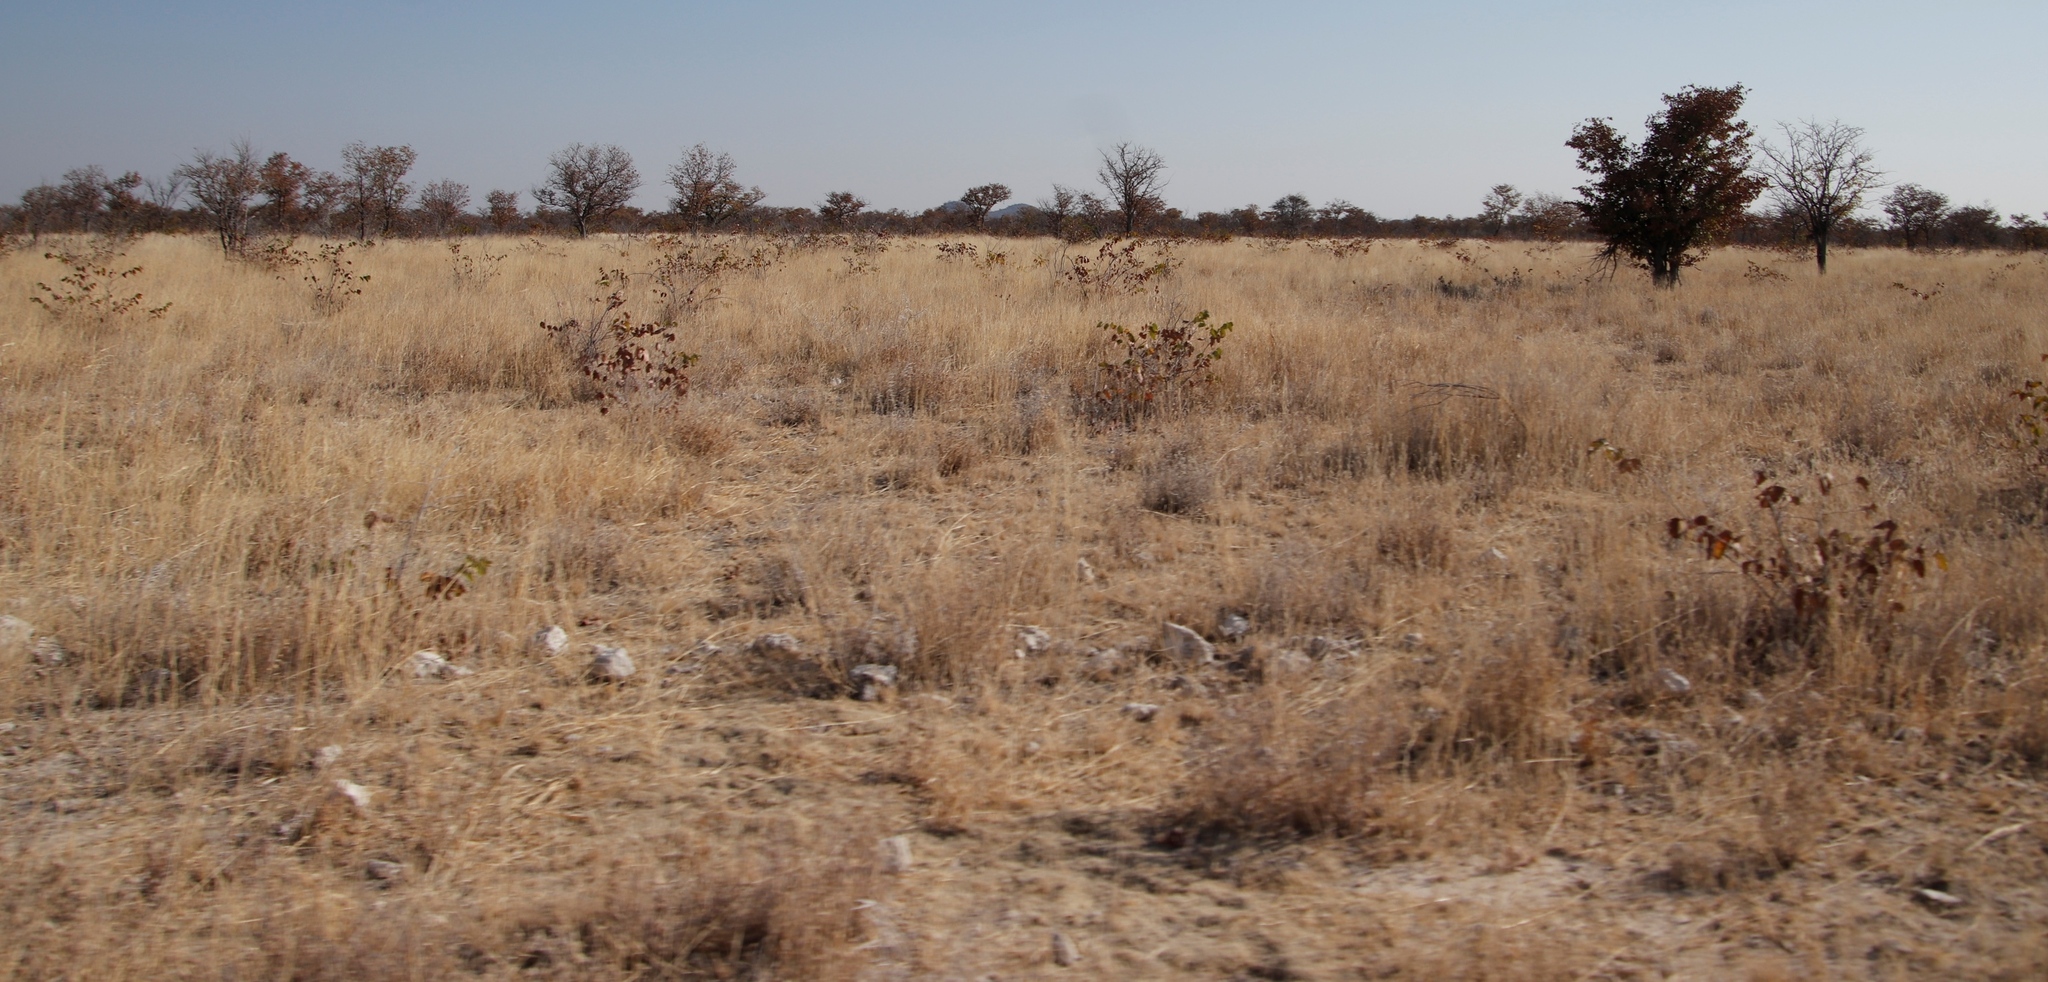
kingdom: Plantae
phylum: Tracheophyta
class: Magnoliopsida
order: Fabales
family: Fabaceae
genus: Colophospermum
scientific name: Colophospermum mopane
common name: Mopane
